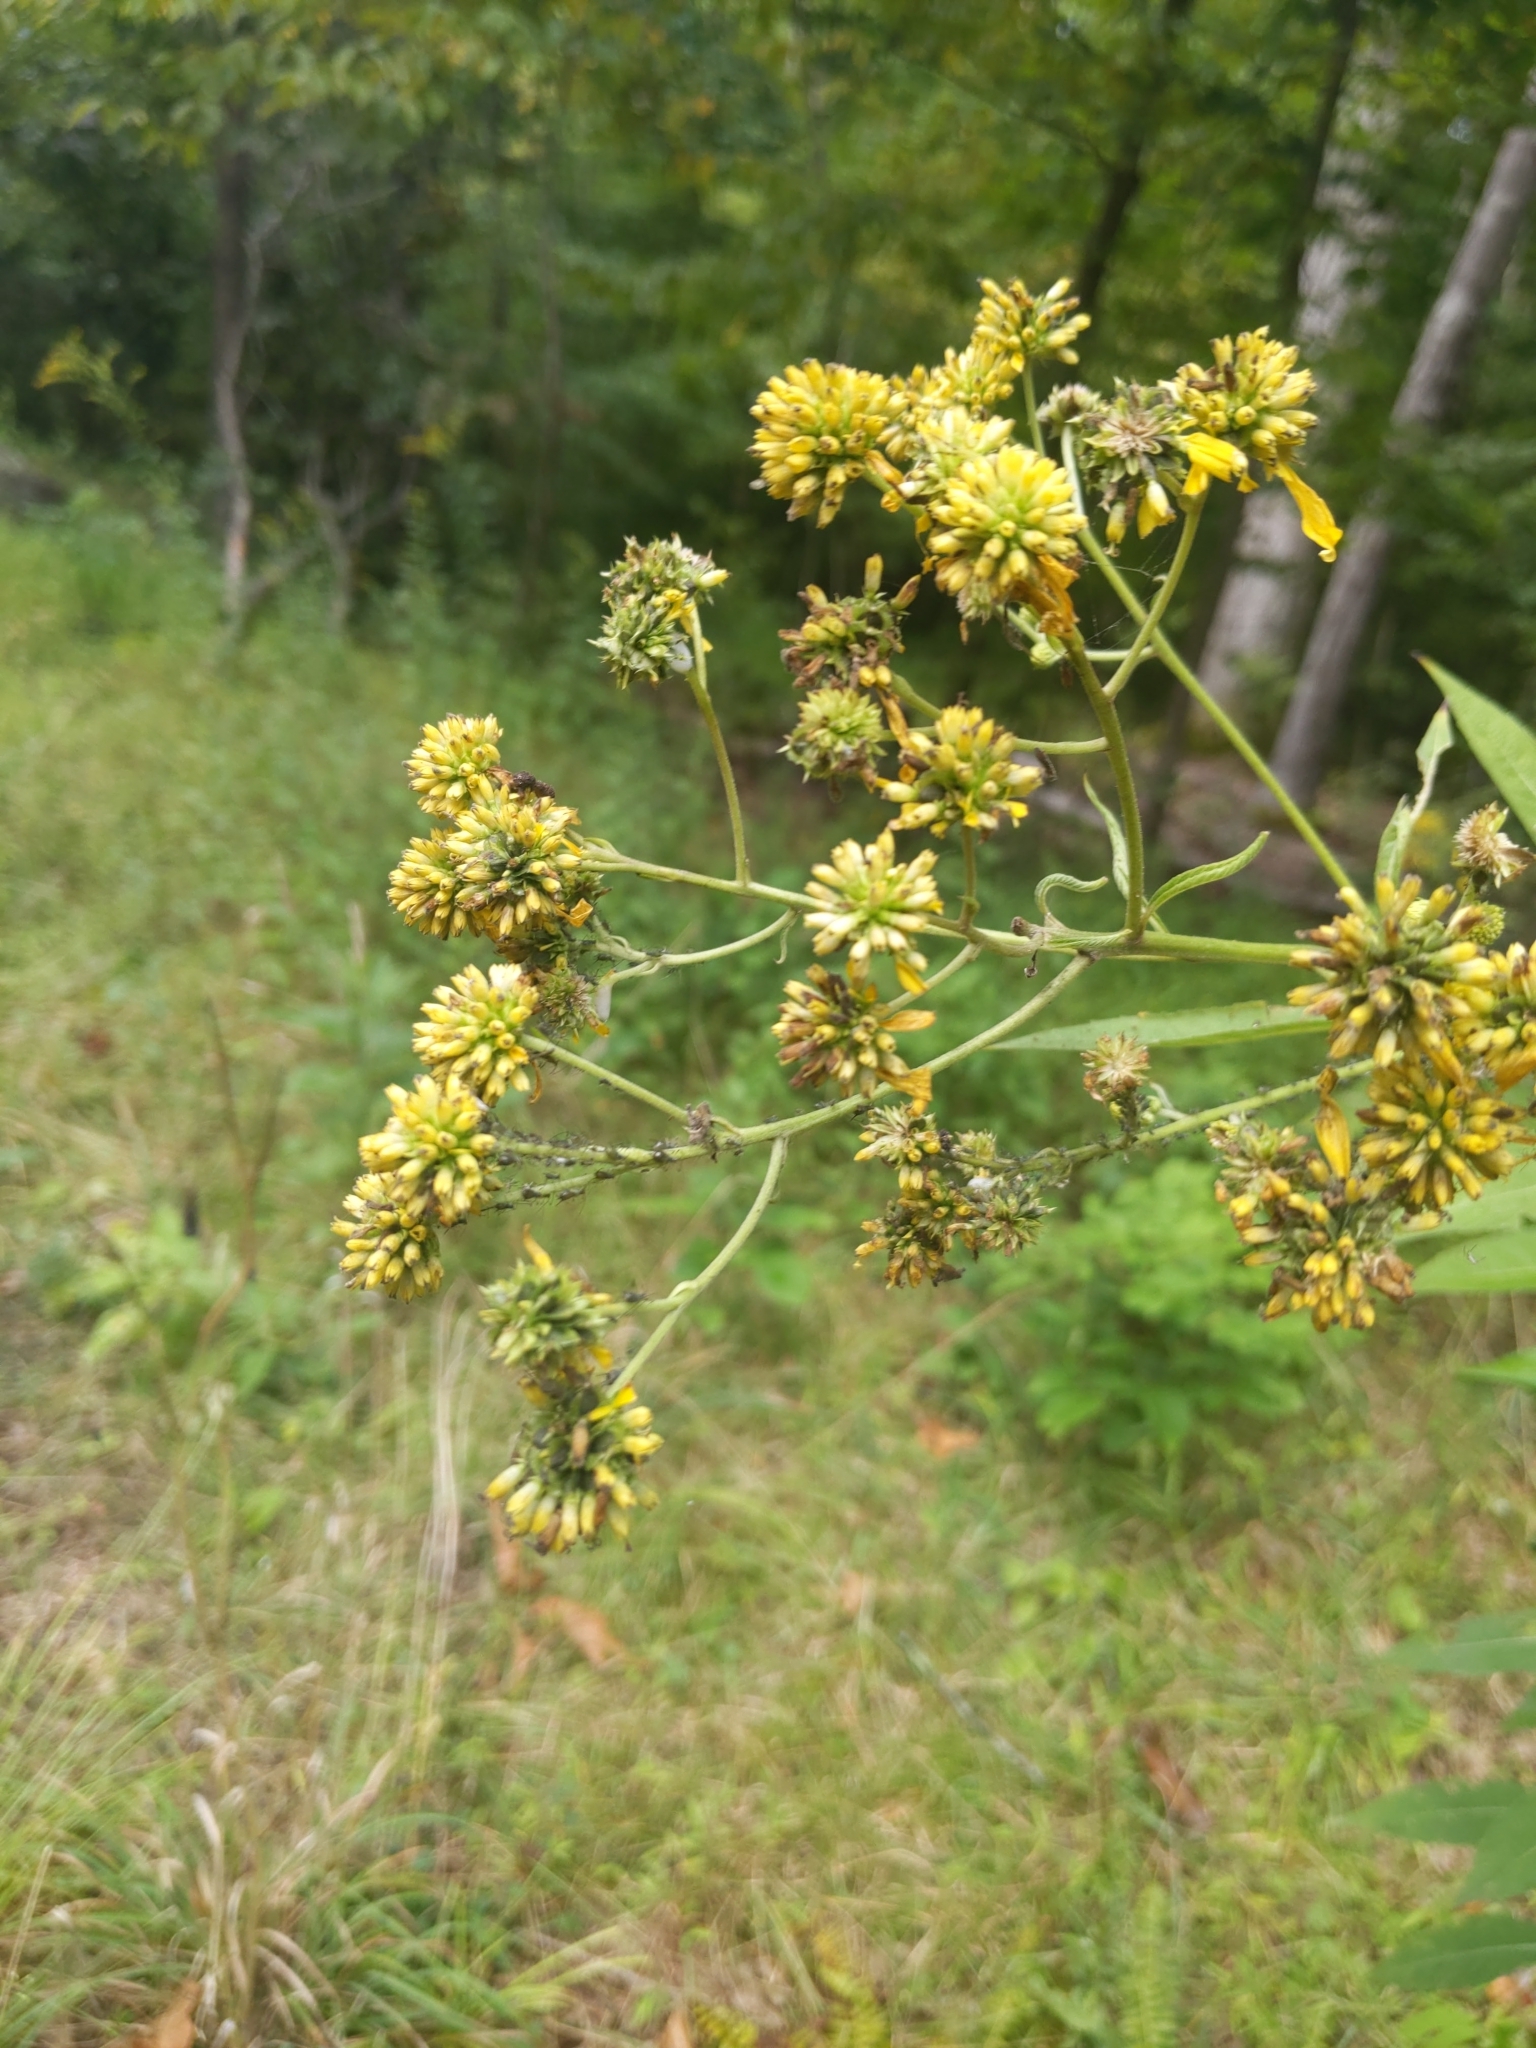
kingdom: Plantae
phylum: Tracheophyta
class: Magnoliopsida
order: Asterales
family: Asteraceae
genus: Verbesina
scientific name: Verbesina alternifolia
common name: Wingstem
